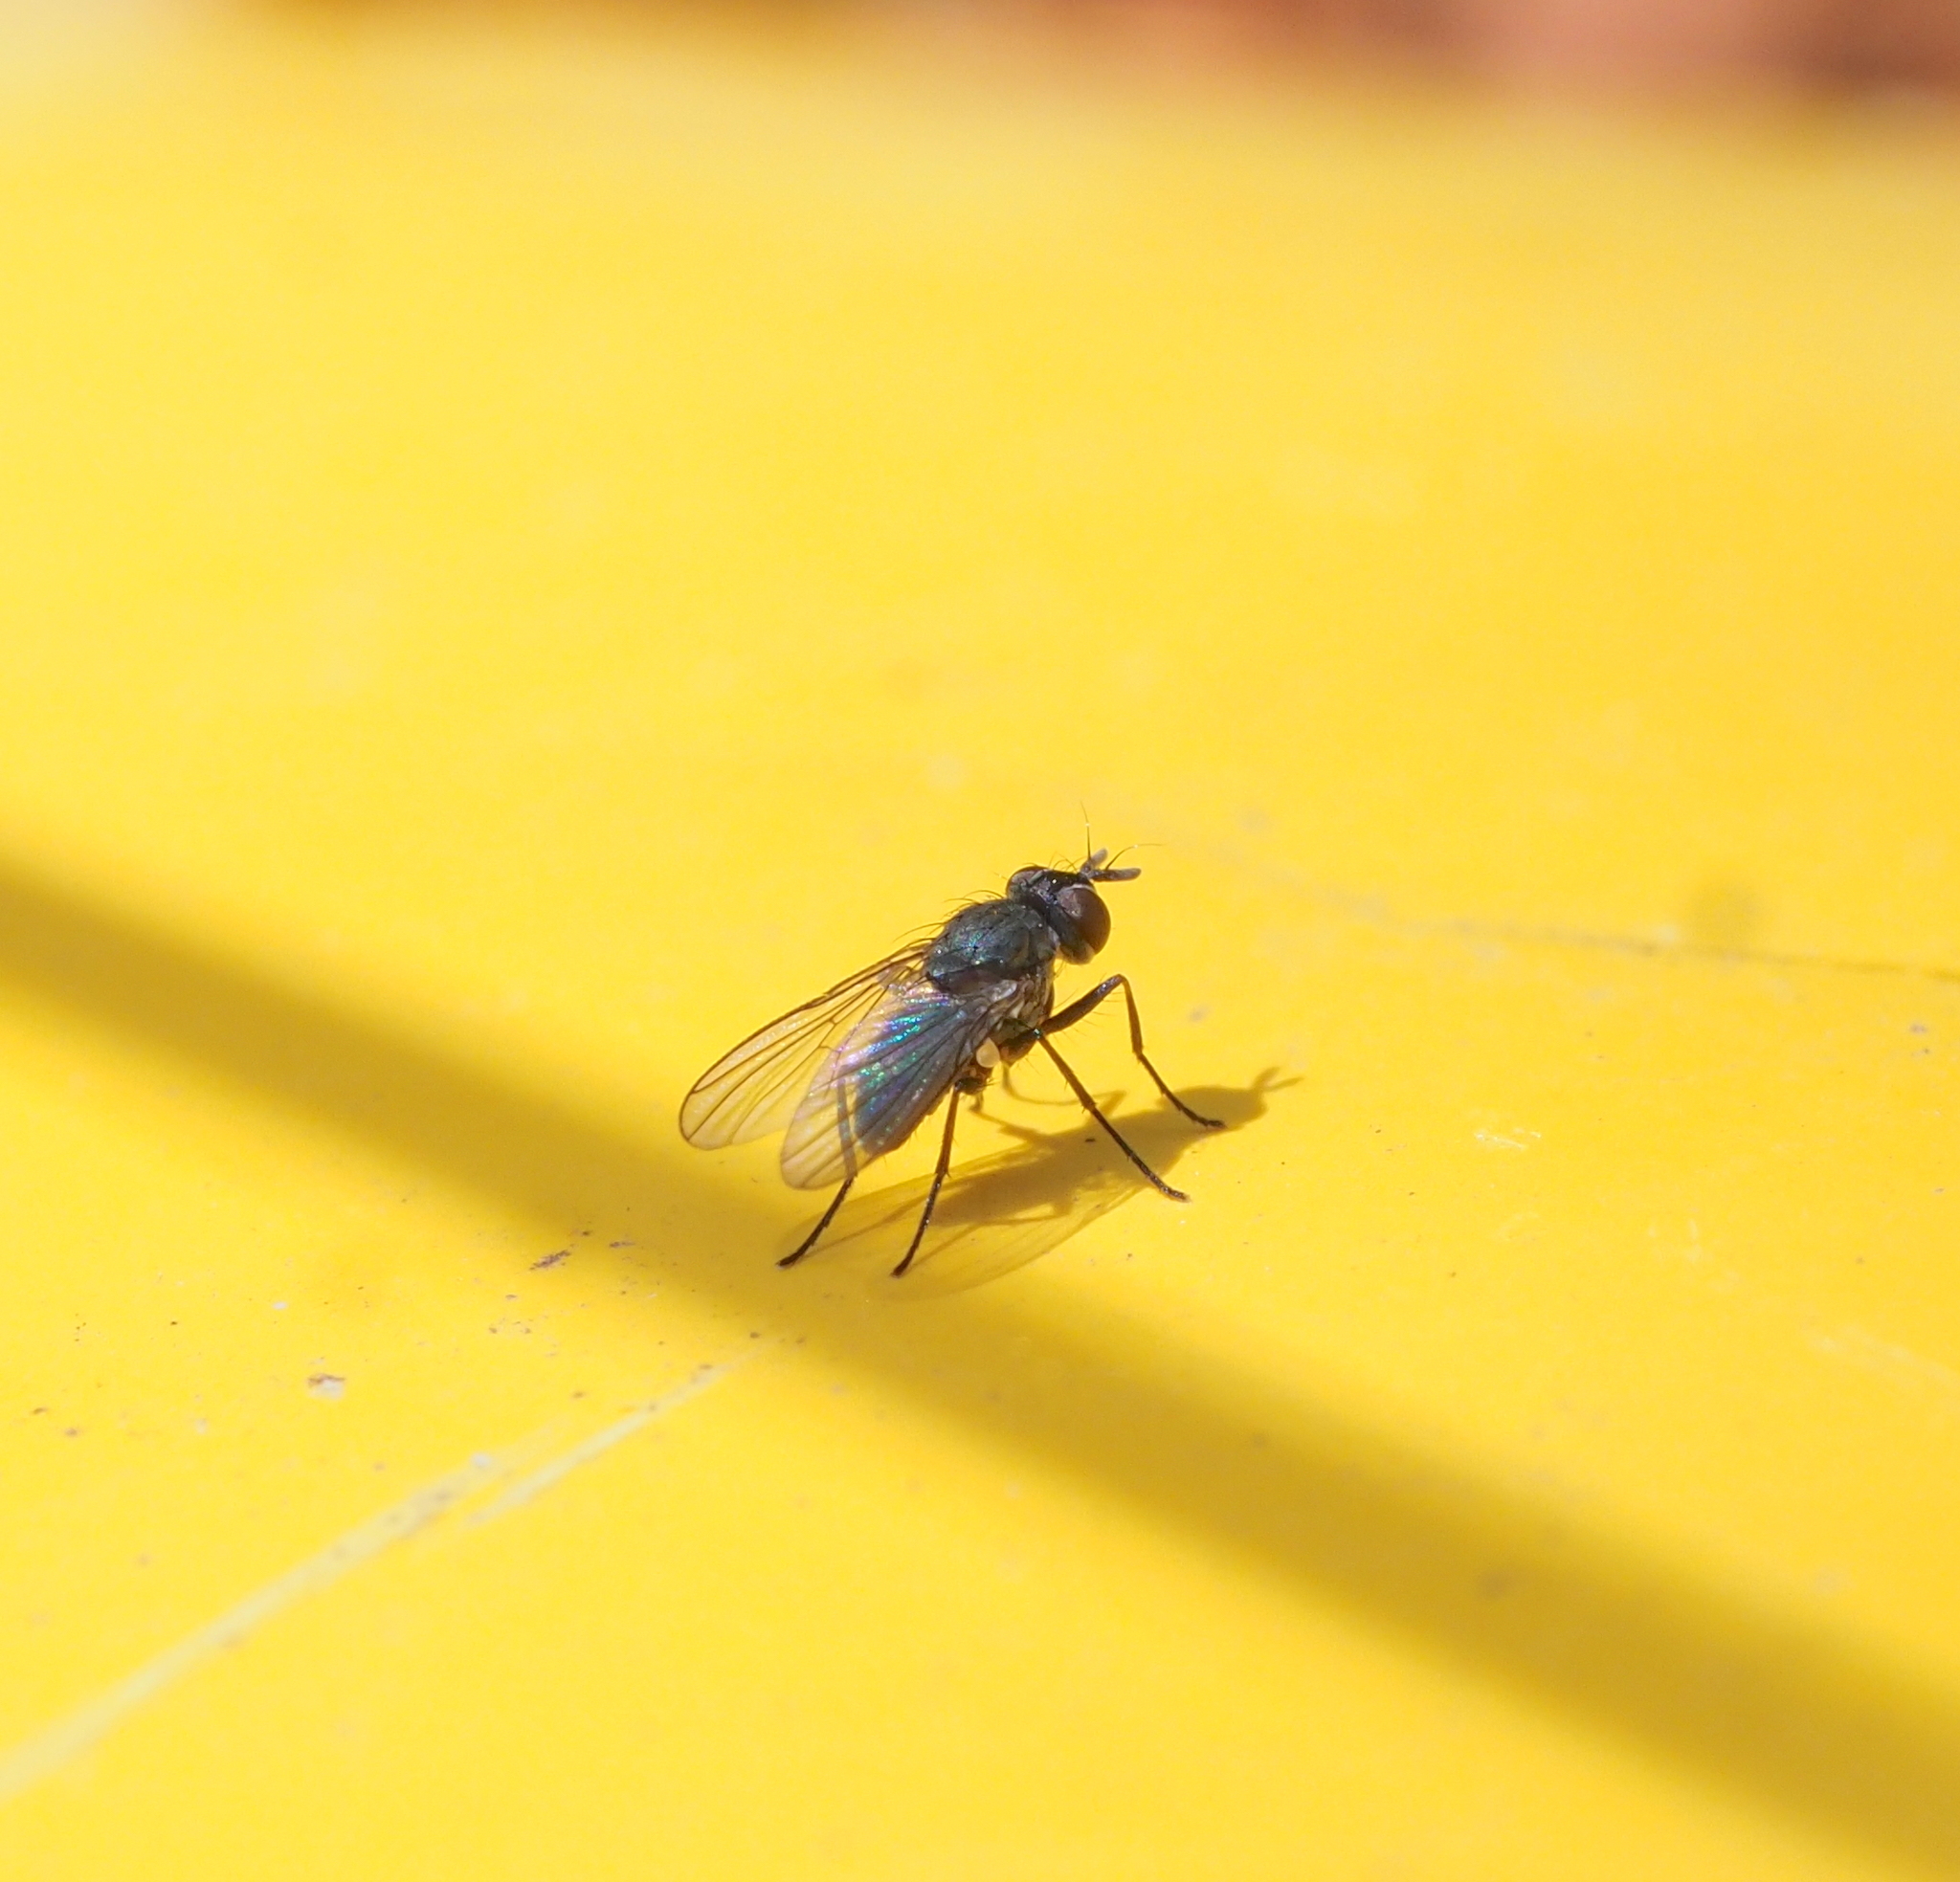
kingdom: Animalia
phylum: Arthropoda
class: Insecta
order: Diptera
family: Muscidae
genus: Coenosia
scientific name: Coenosia agromyzina
